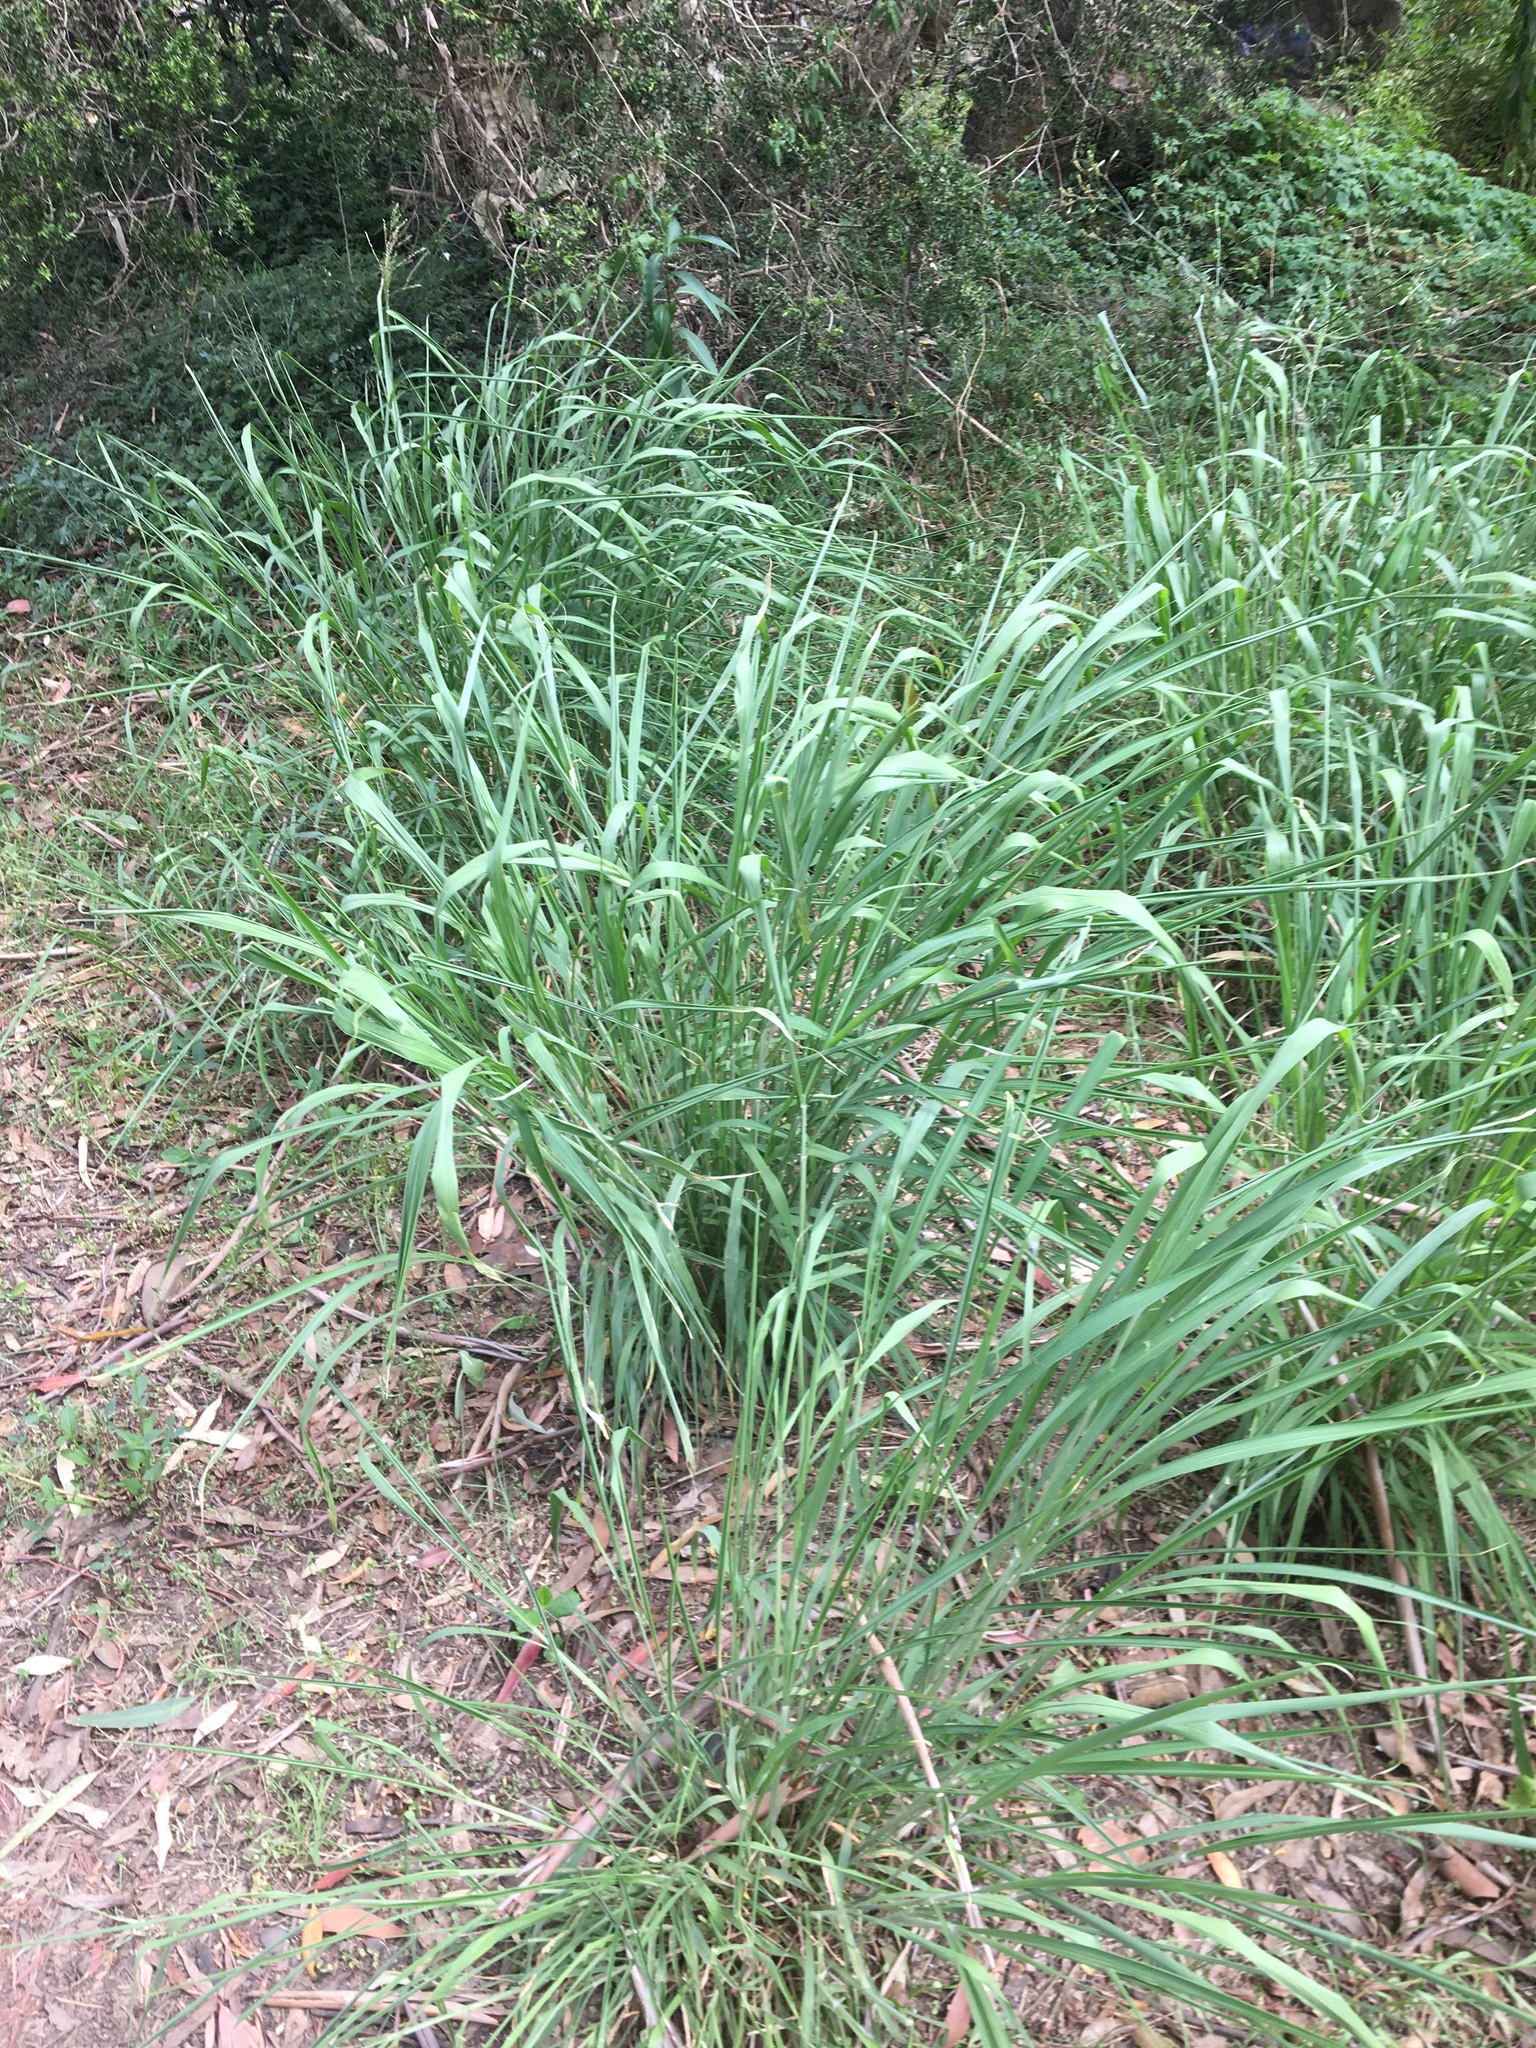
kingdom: Plantae
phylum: Tracheophyta
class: Liliopsida
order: Poales
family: Poaceae
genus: Megathyrsus
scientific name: Megathyrsus maximus
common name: Guineagrass
